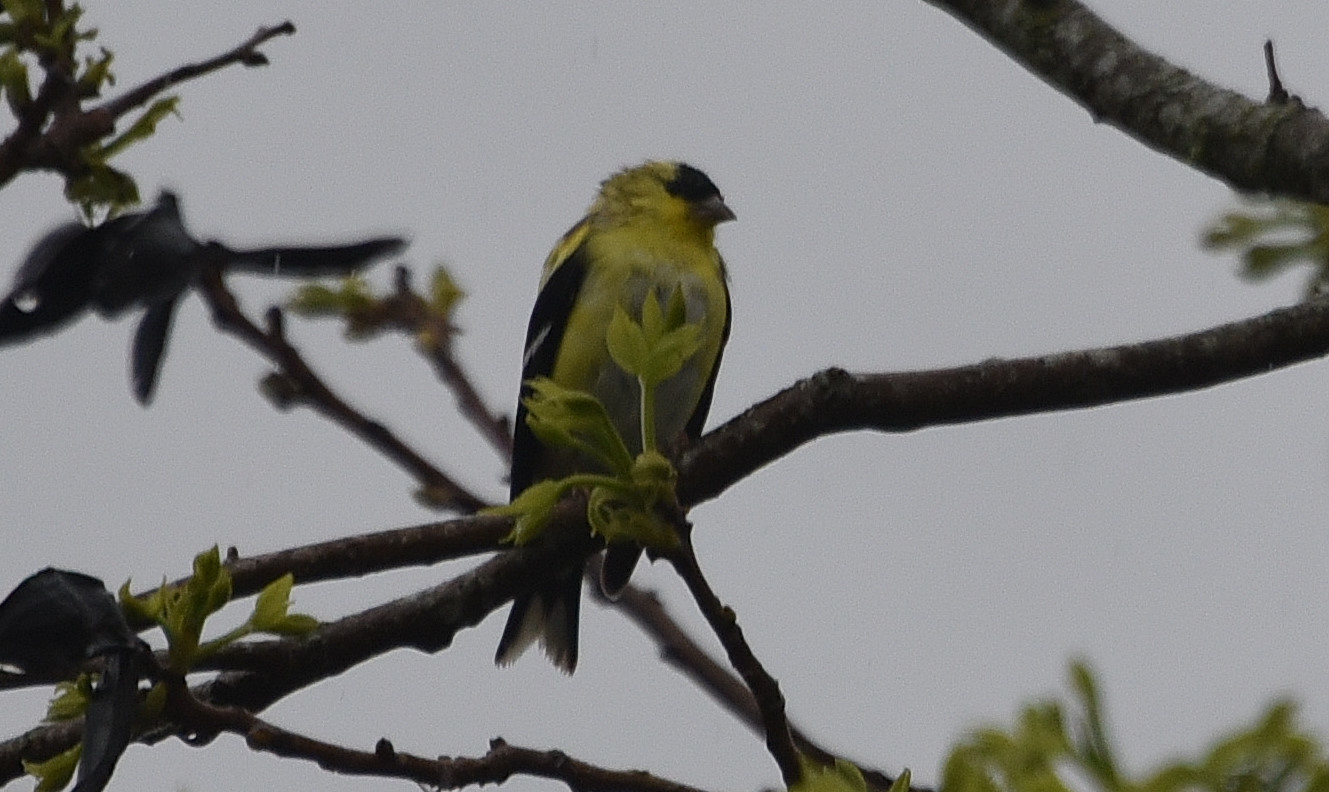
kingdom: Animalia
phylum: Chordata
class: Aves
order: Passeriformes
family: Fringillidae
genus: Spinus
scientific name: Spinus tristis
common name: American goldfinch
